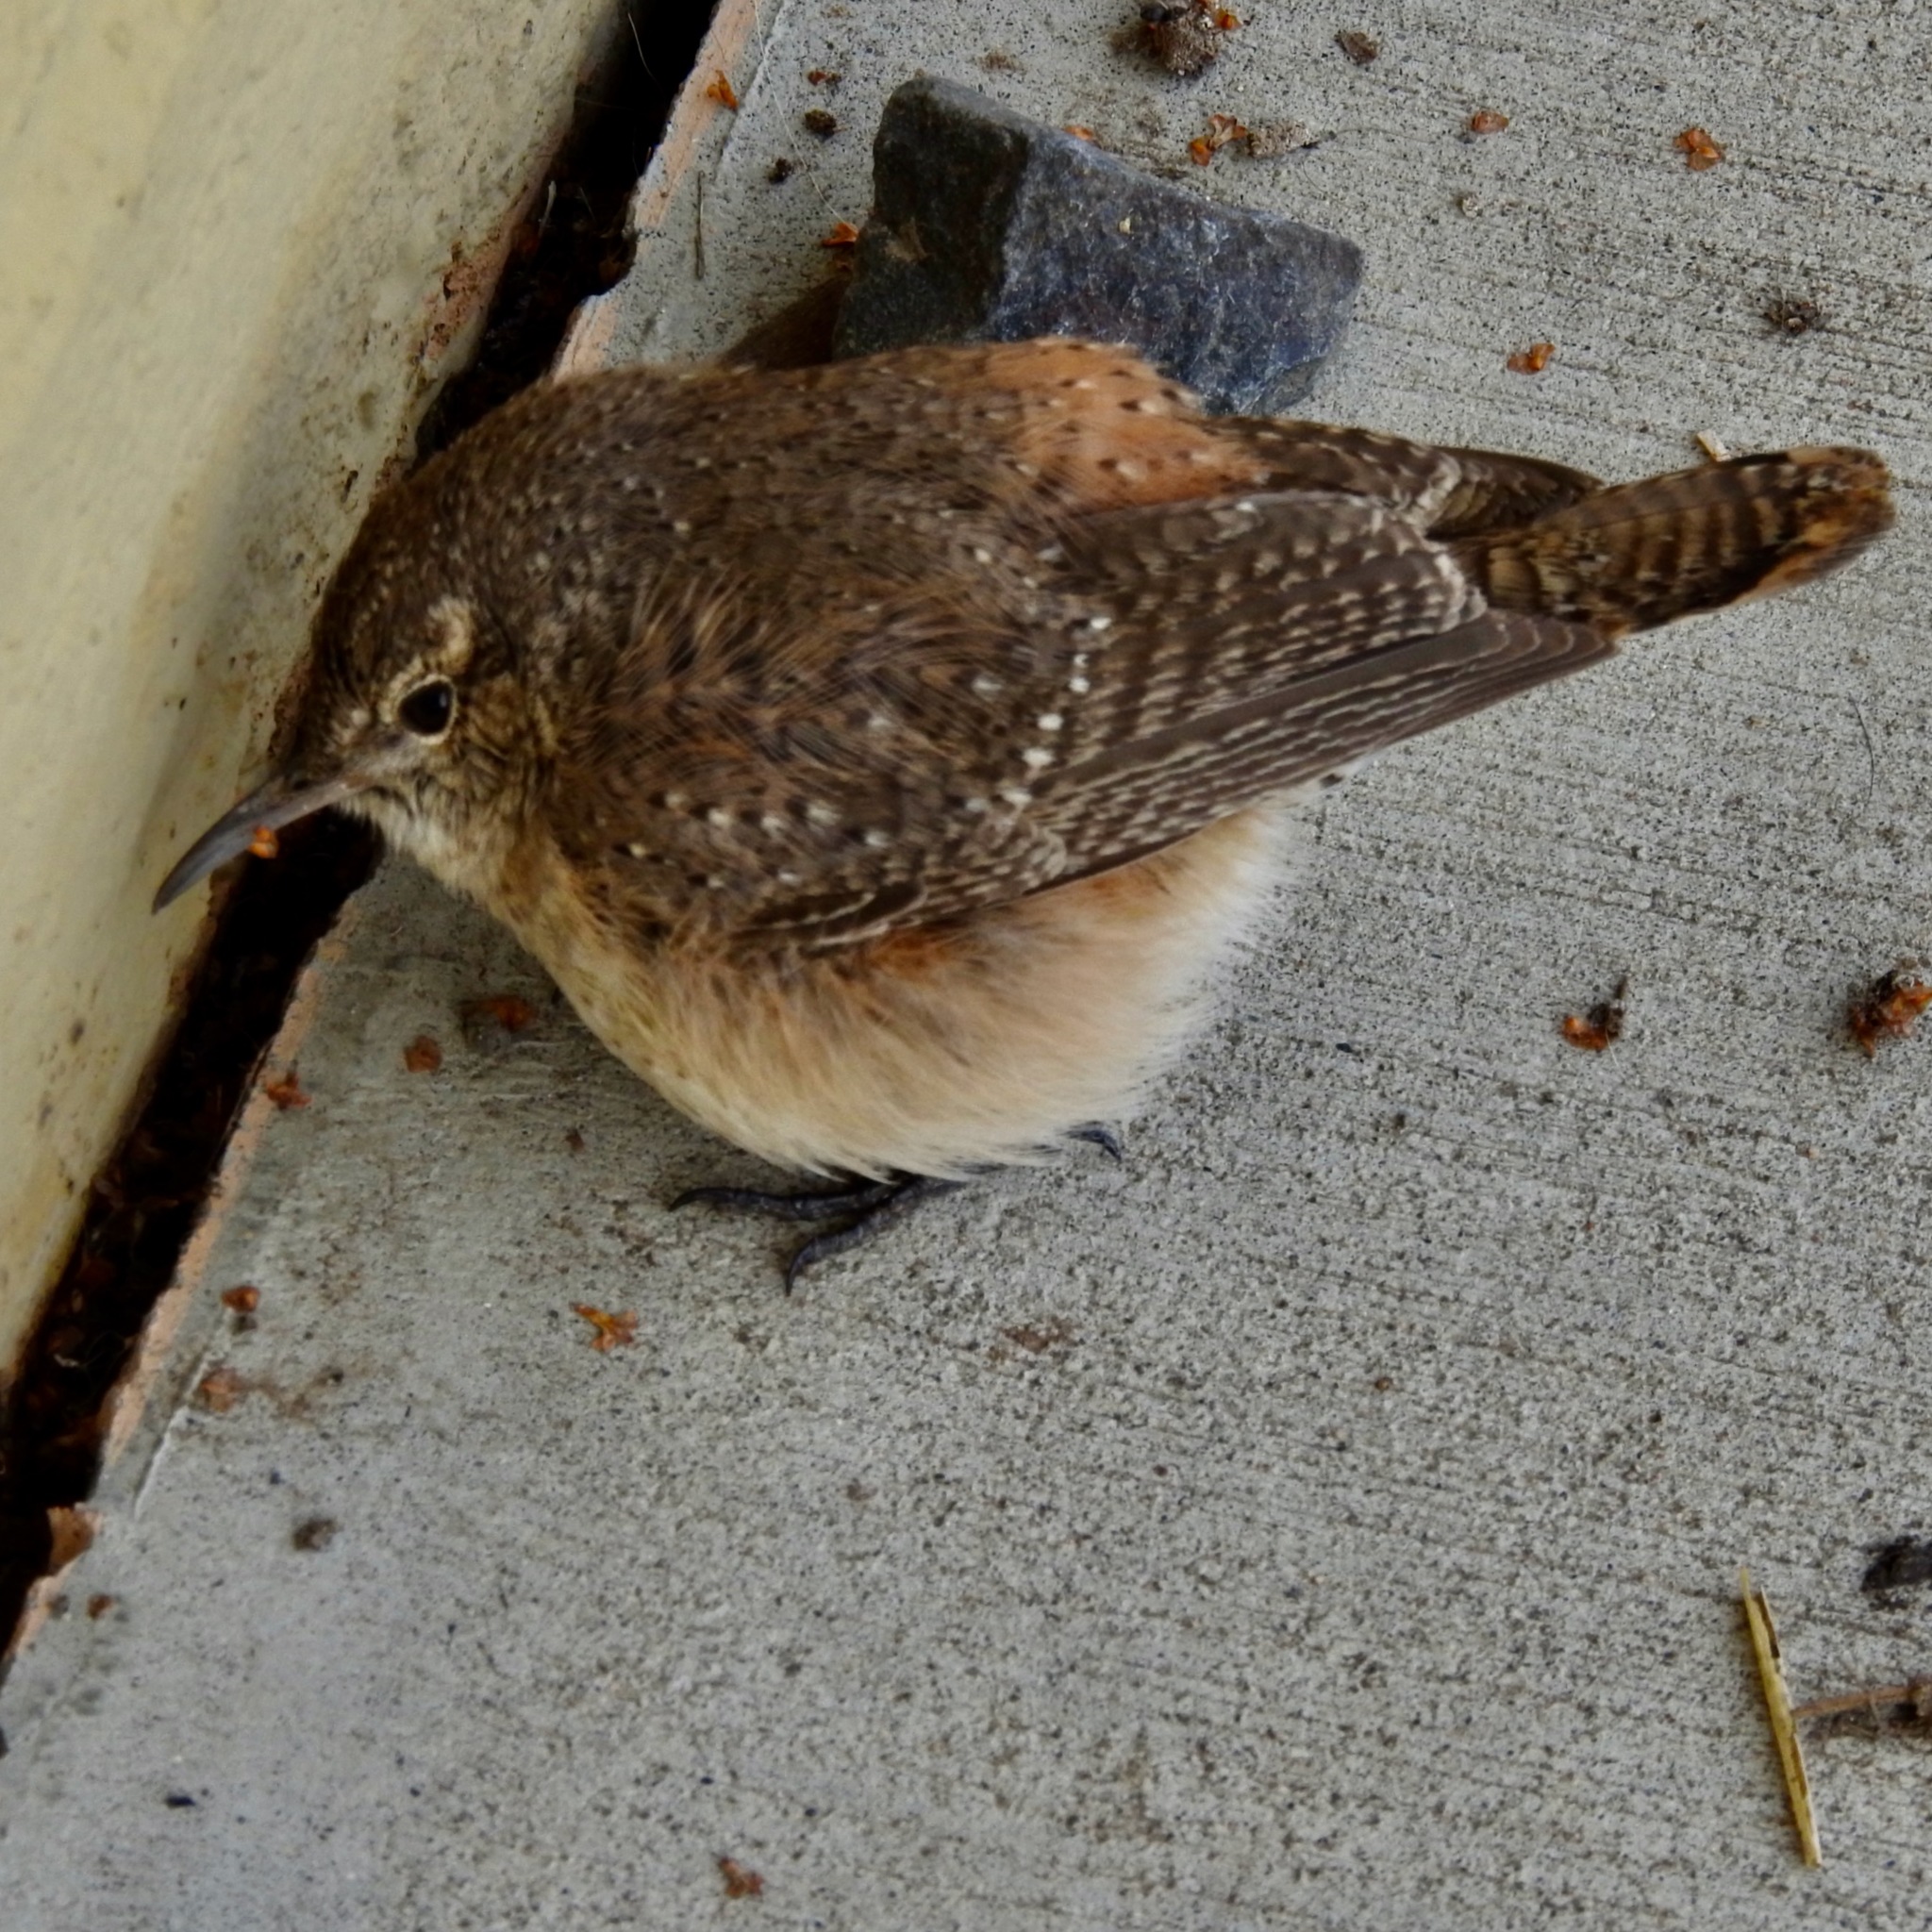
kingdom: Animalia
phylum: Chordata
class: Aves
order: Passeriformes
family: Troglodytidae
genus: Salpinctes
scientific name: Salpinctes obsoletus
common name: Rock wren
